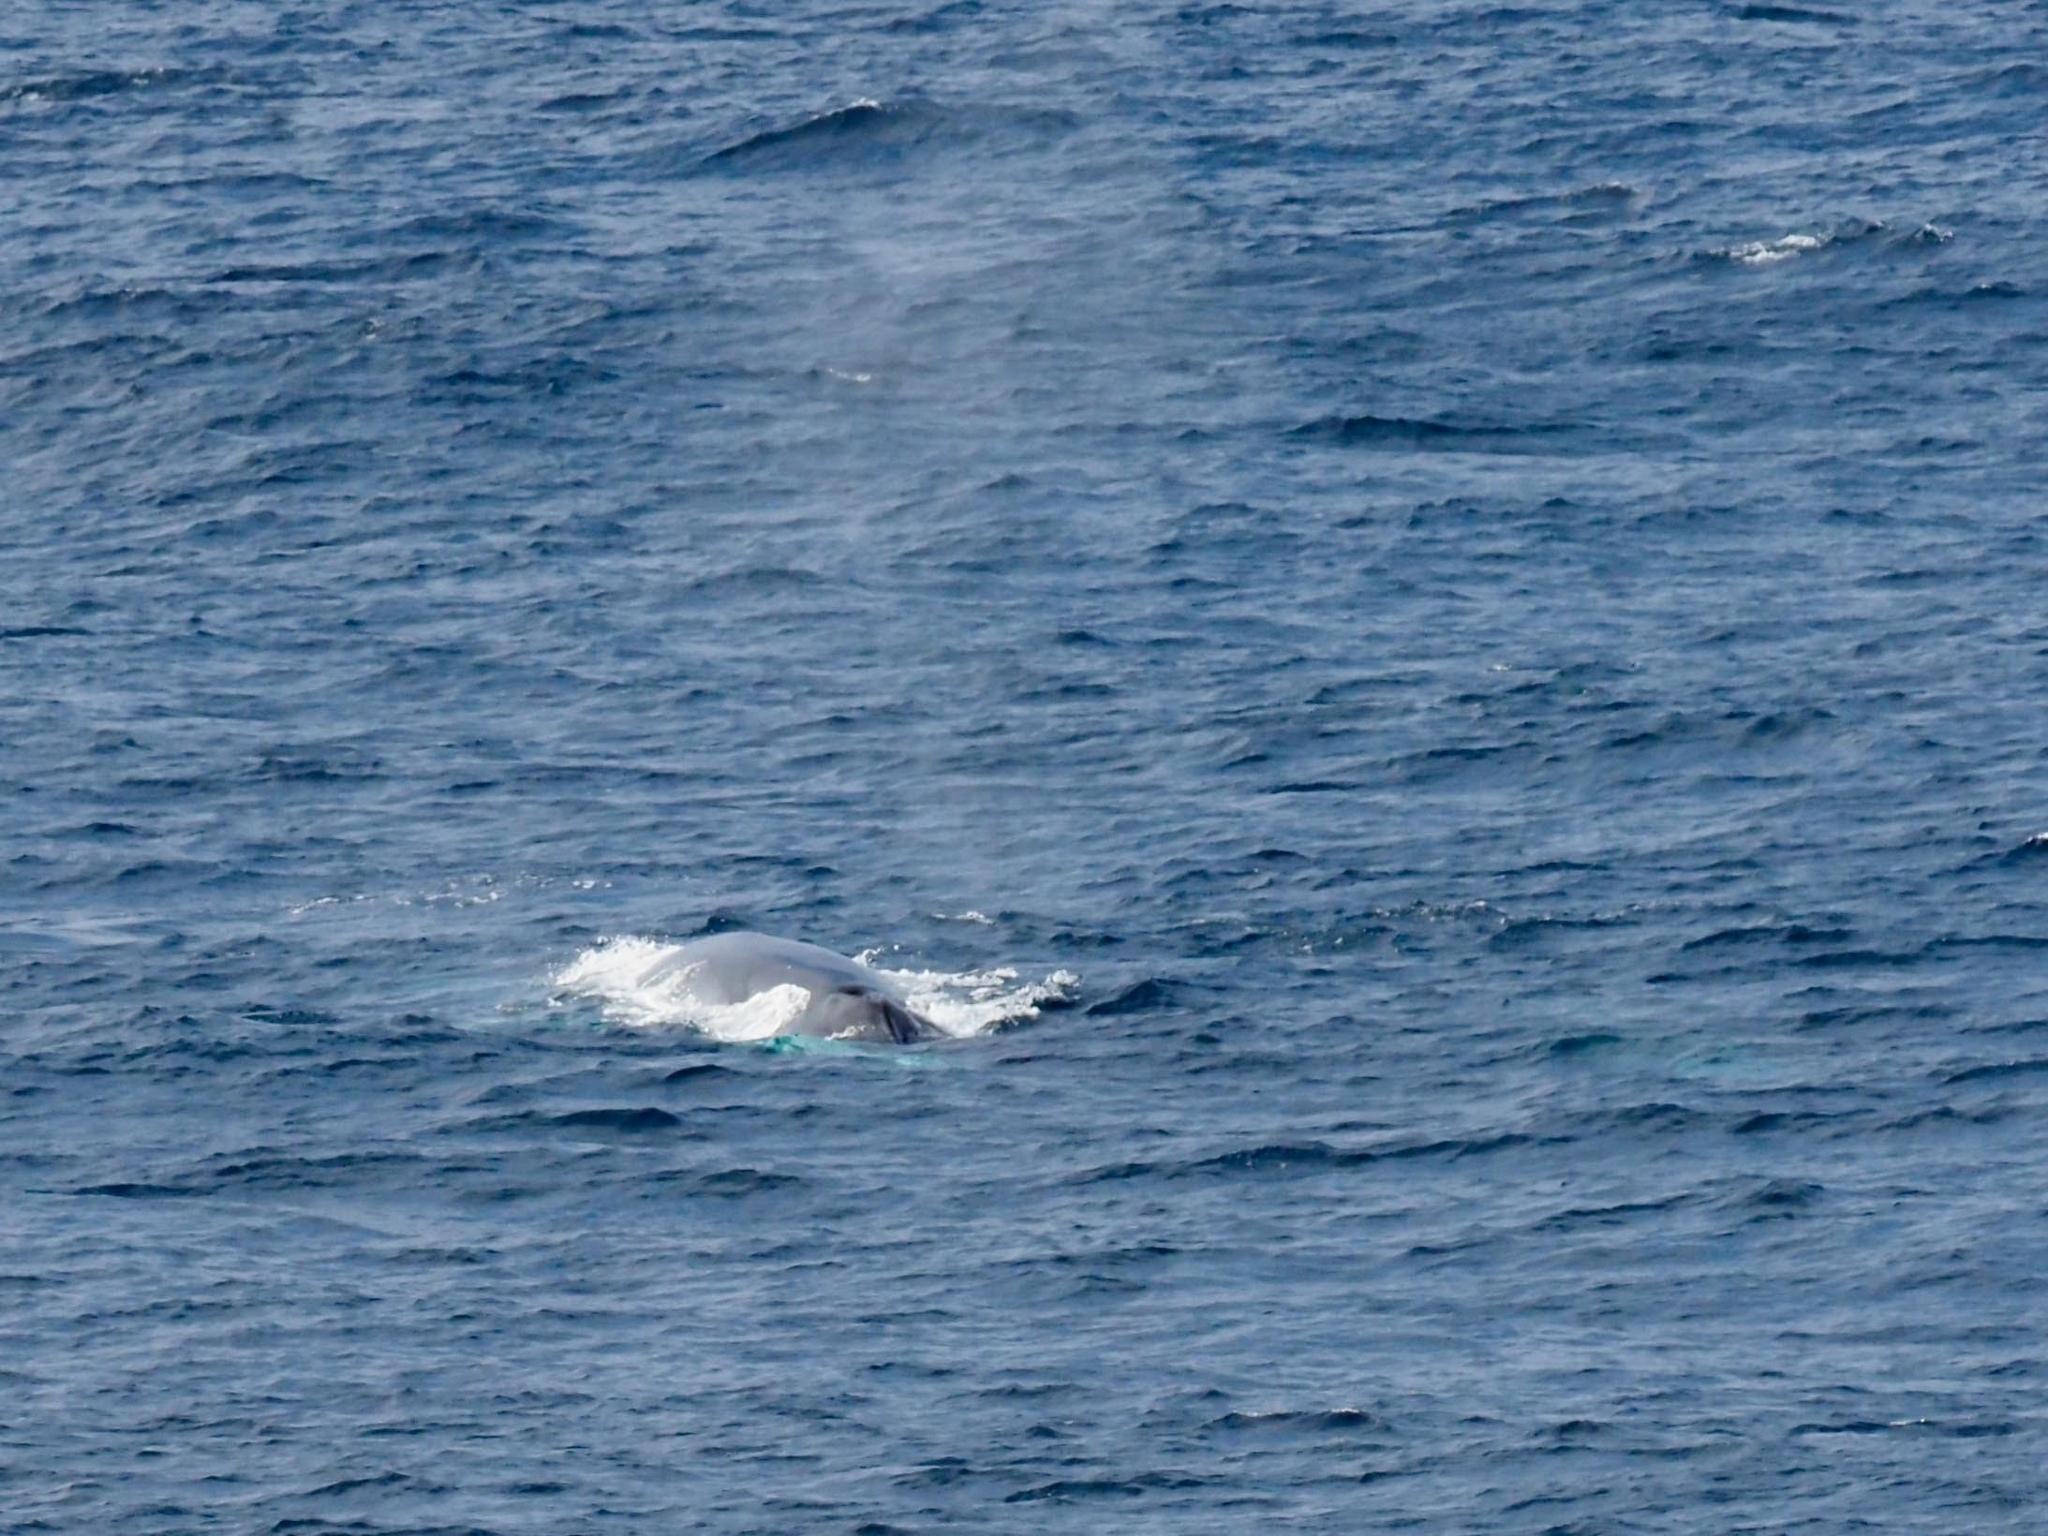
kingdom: Animalia
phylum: Chordata
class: Mammalia
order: Cetacea
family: Balaenopteridae
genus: Balaenoptera
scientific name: Balaenoptera physalus
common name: Fin whale
